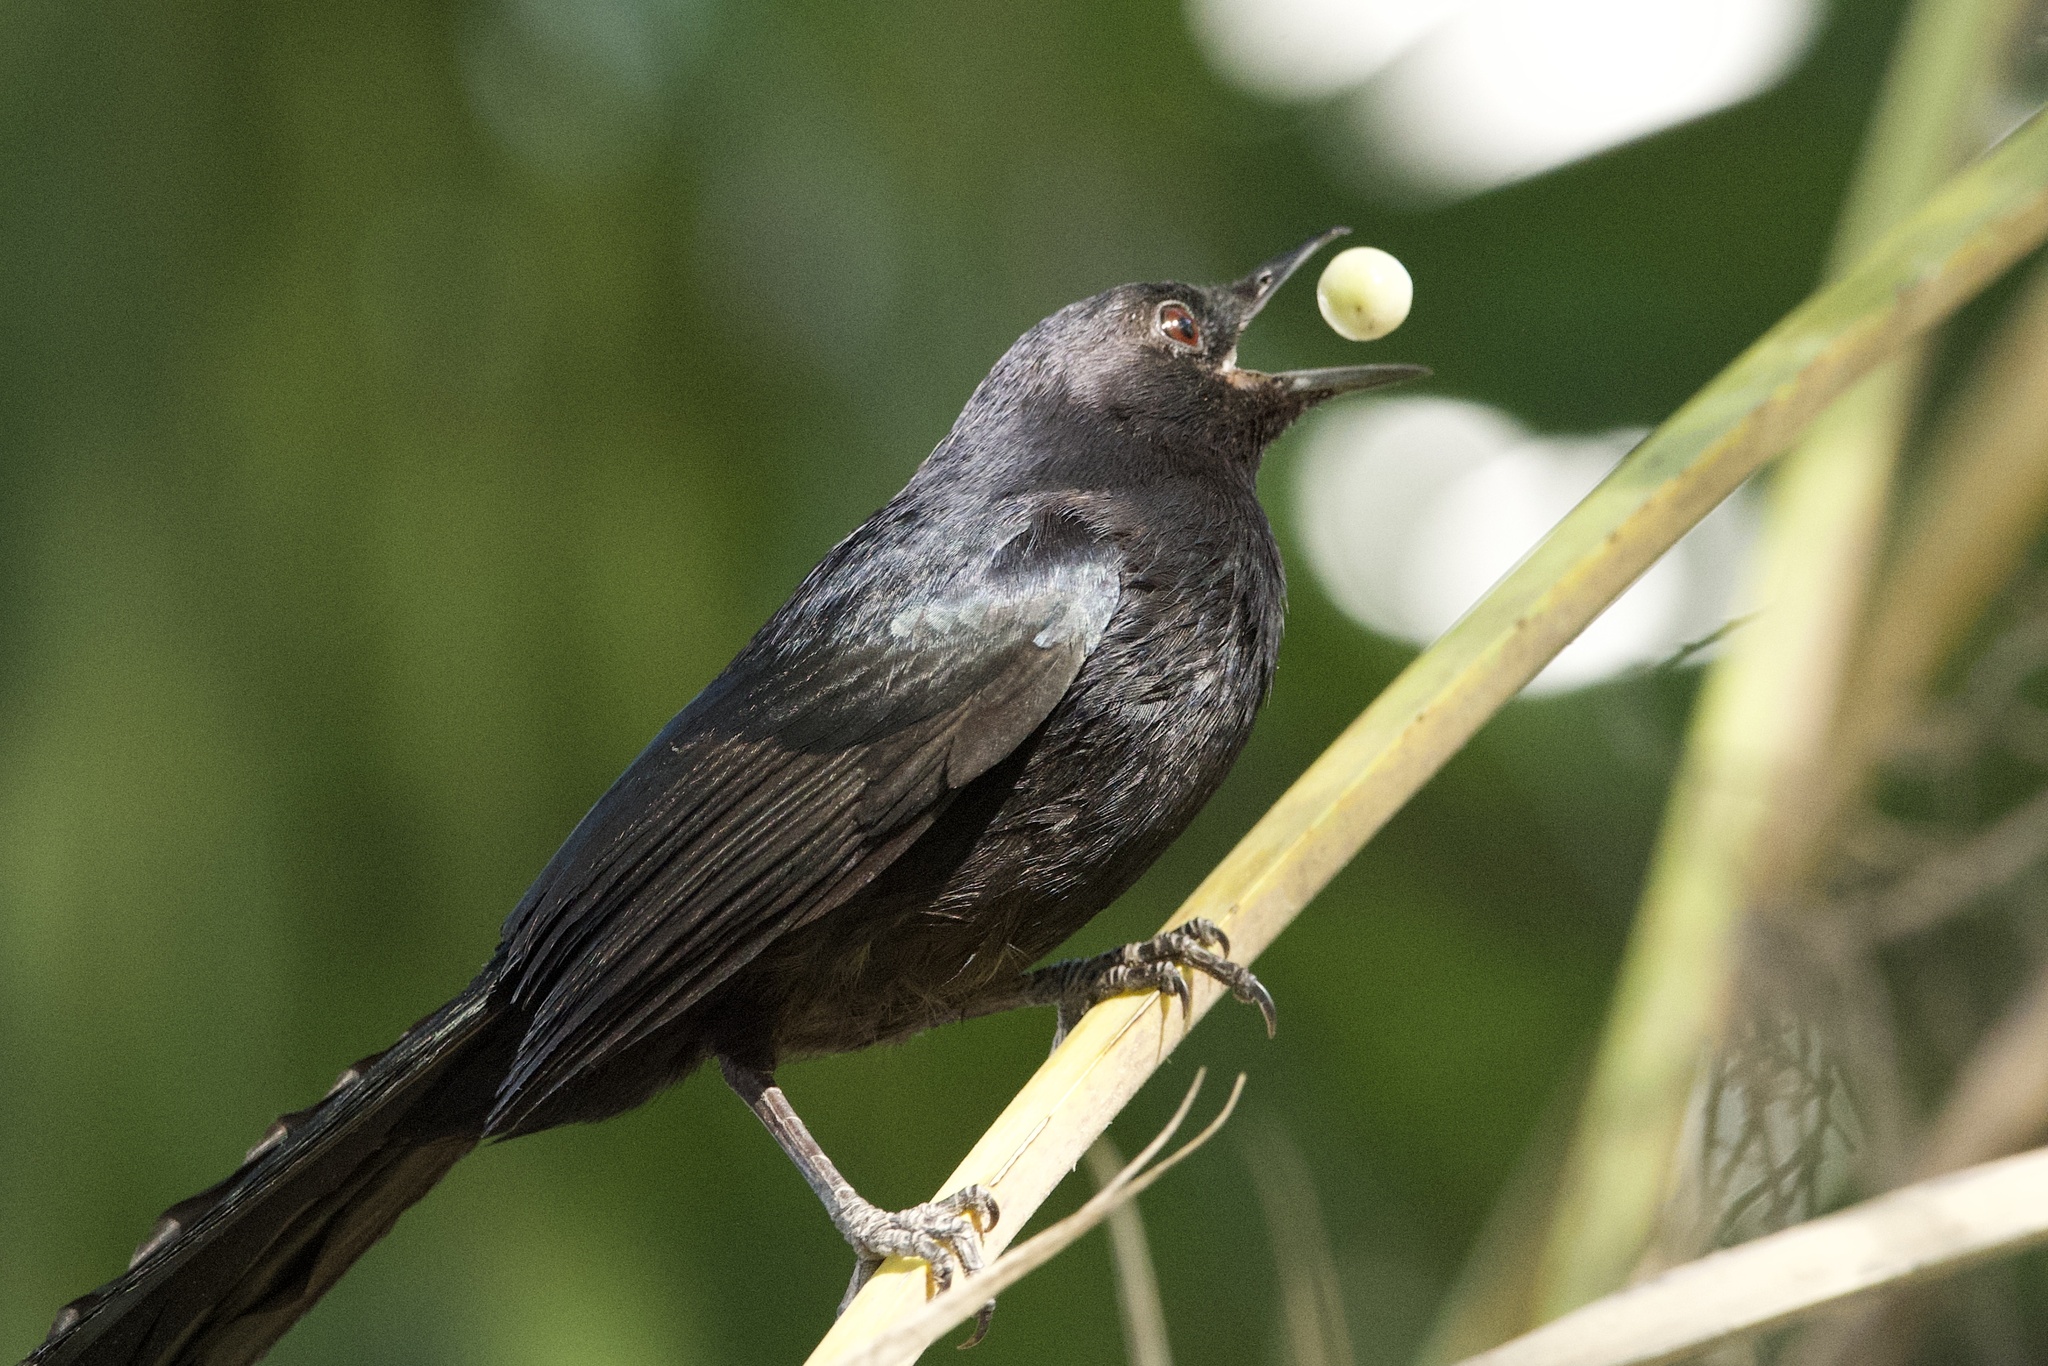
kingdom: Animalia
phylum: Chordata
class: Aves
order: Passeriformes
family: Mimidae
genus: Melanoptila
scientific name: Melanoptila glabrirostris
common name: Black catbird
